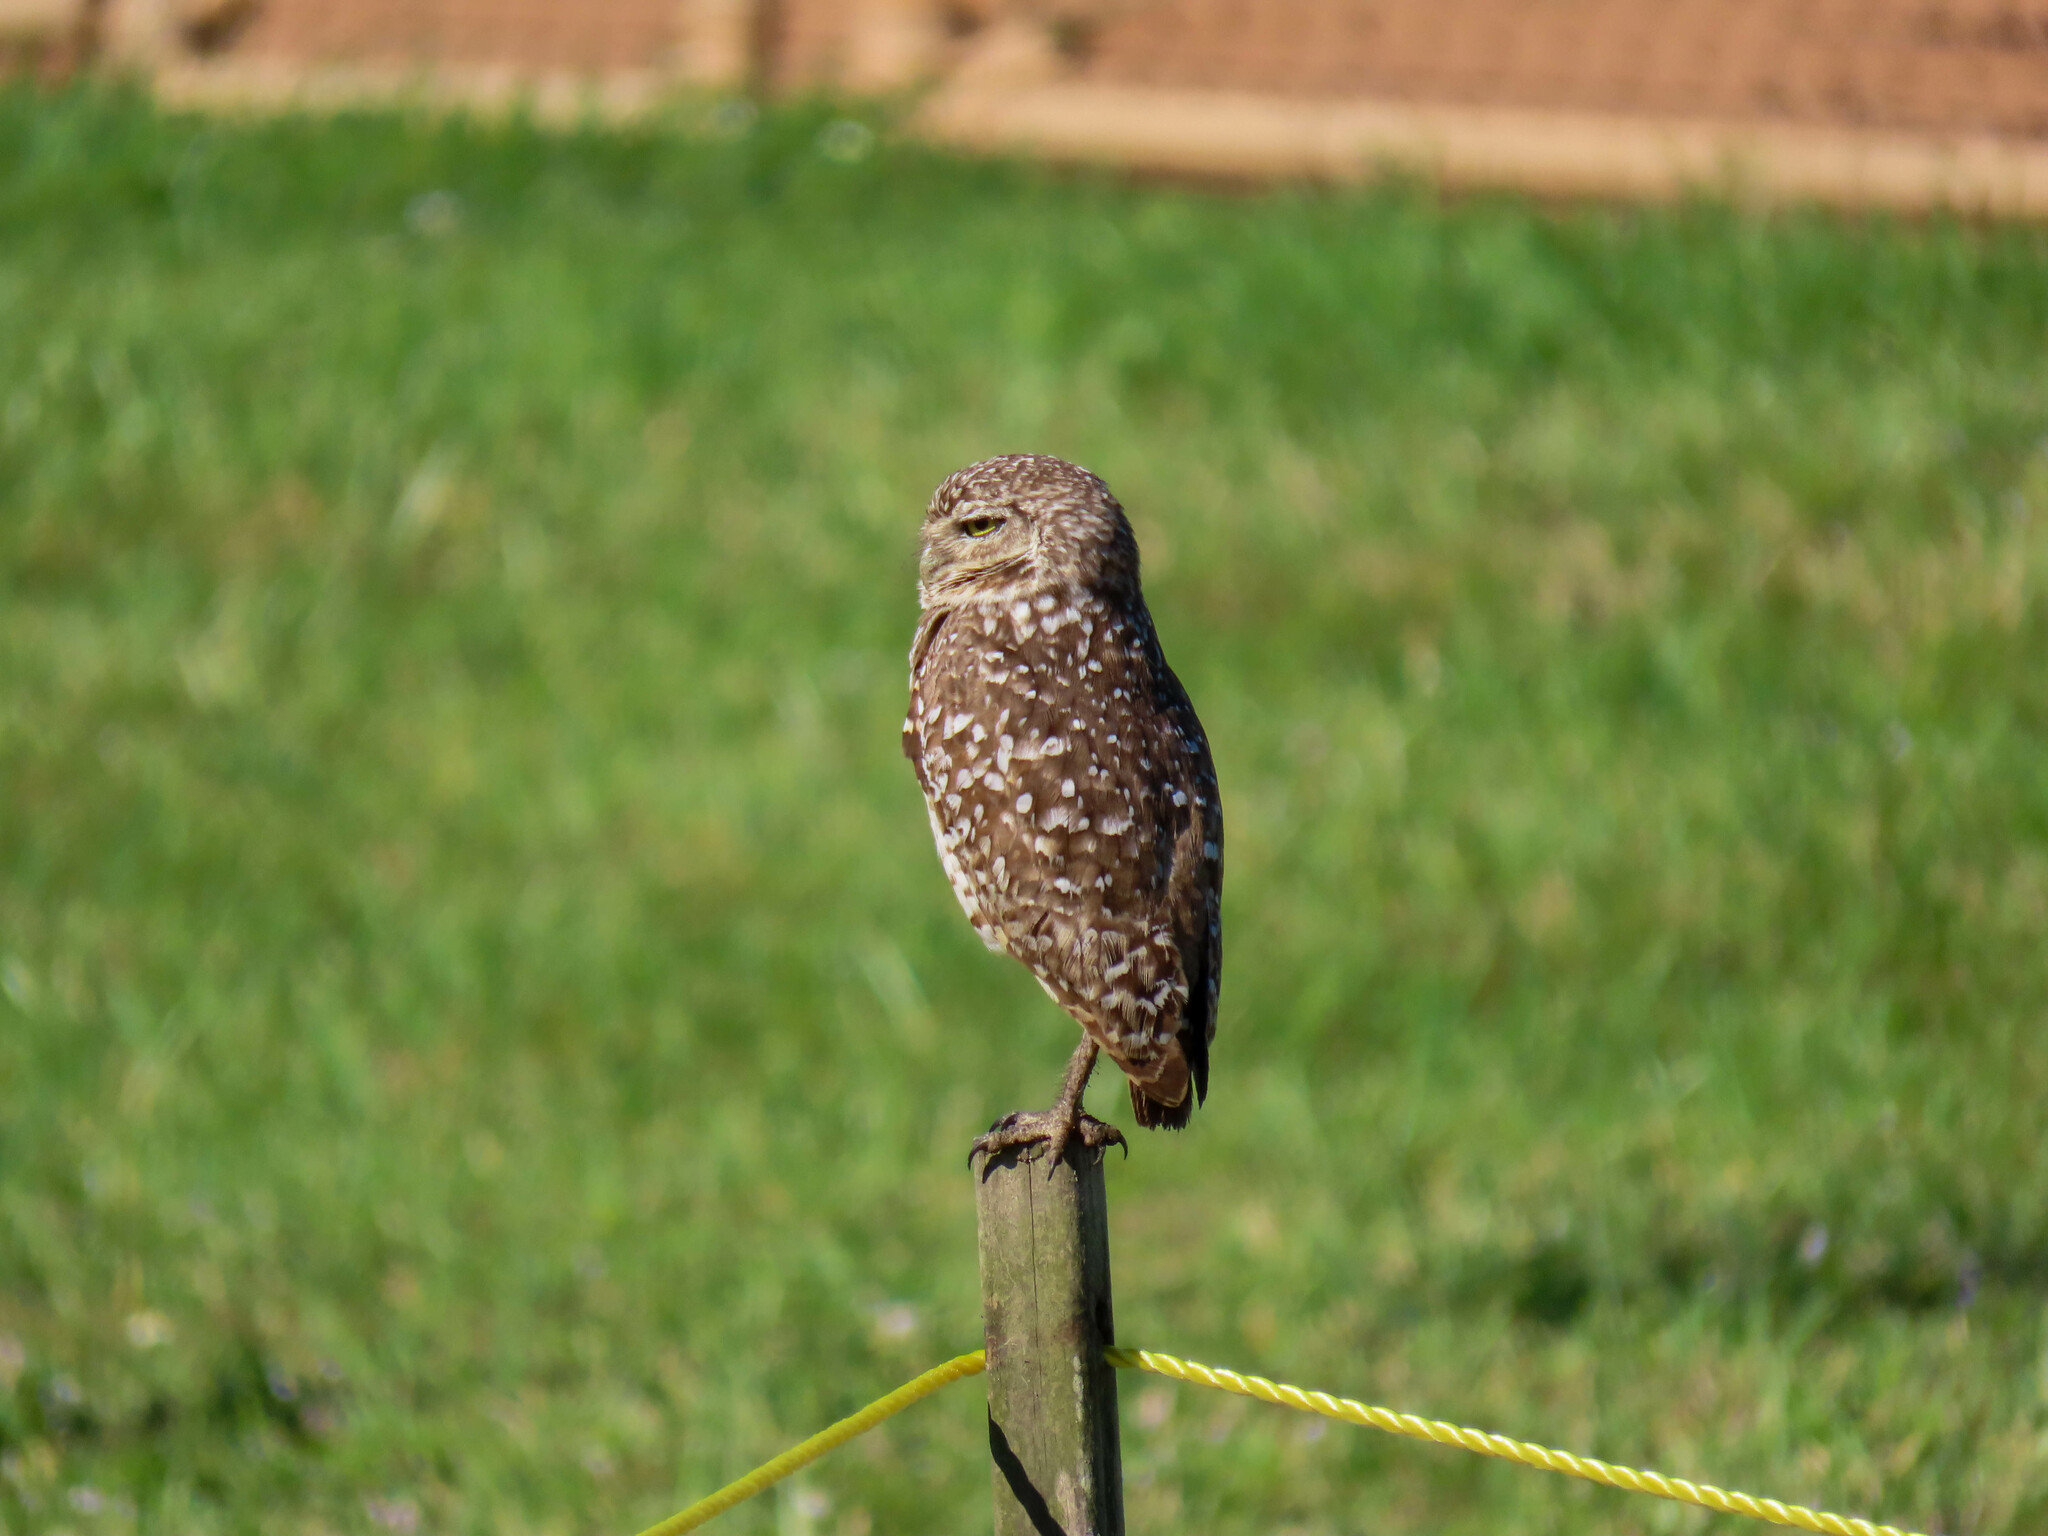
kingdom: Animalia
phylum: Chordata
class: Aves
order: Strigiformes
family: Strigidae
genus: Athene
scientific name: Athene cunicularia
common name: Burrowing owl
